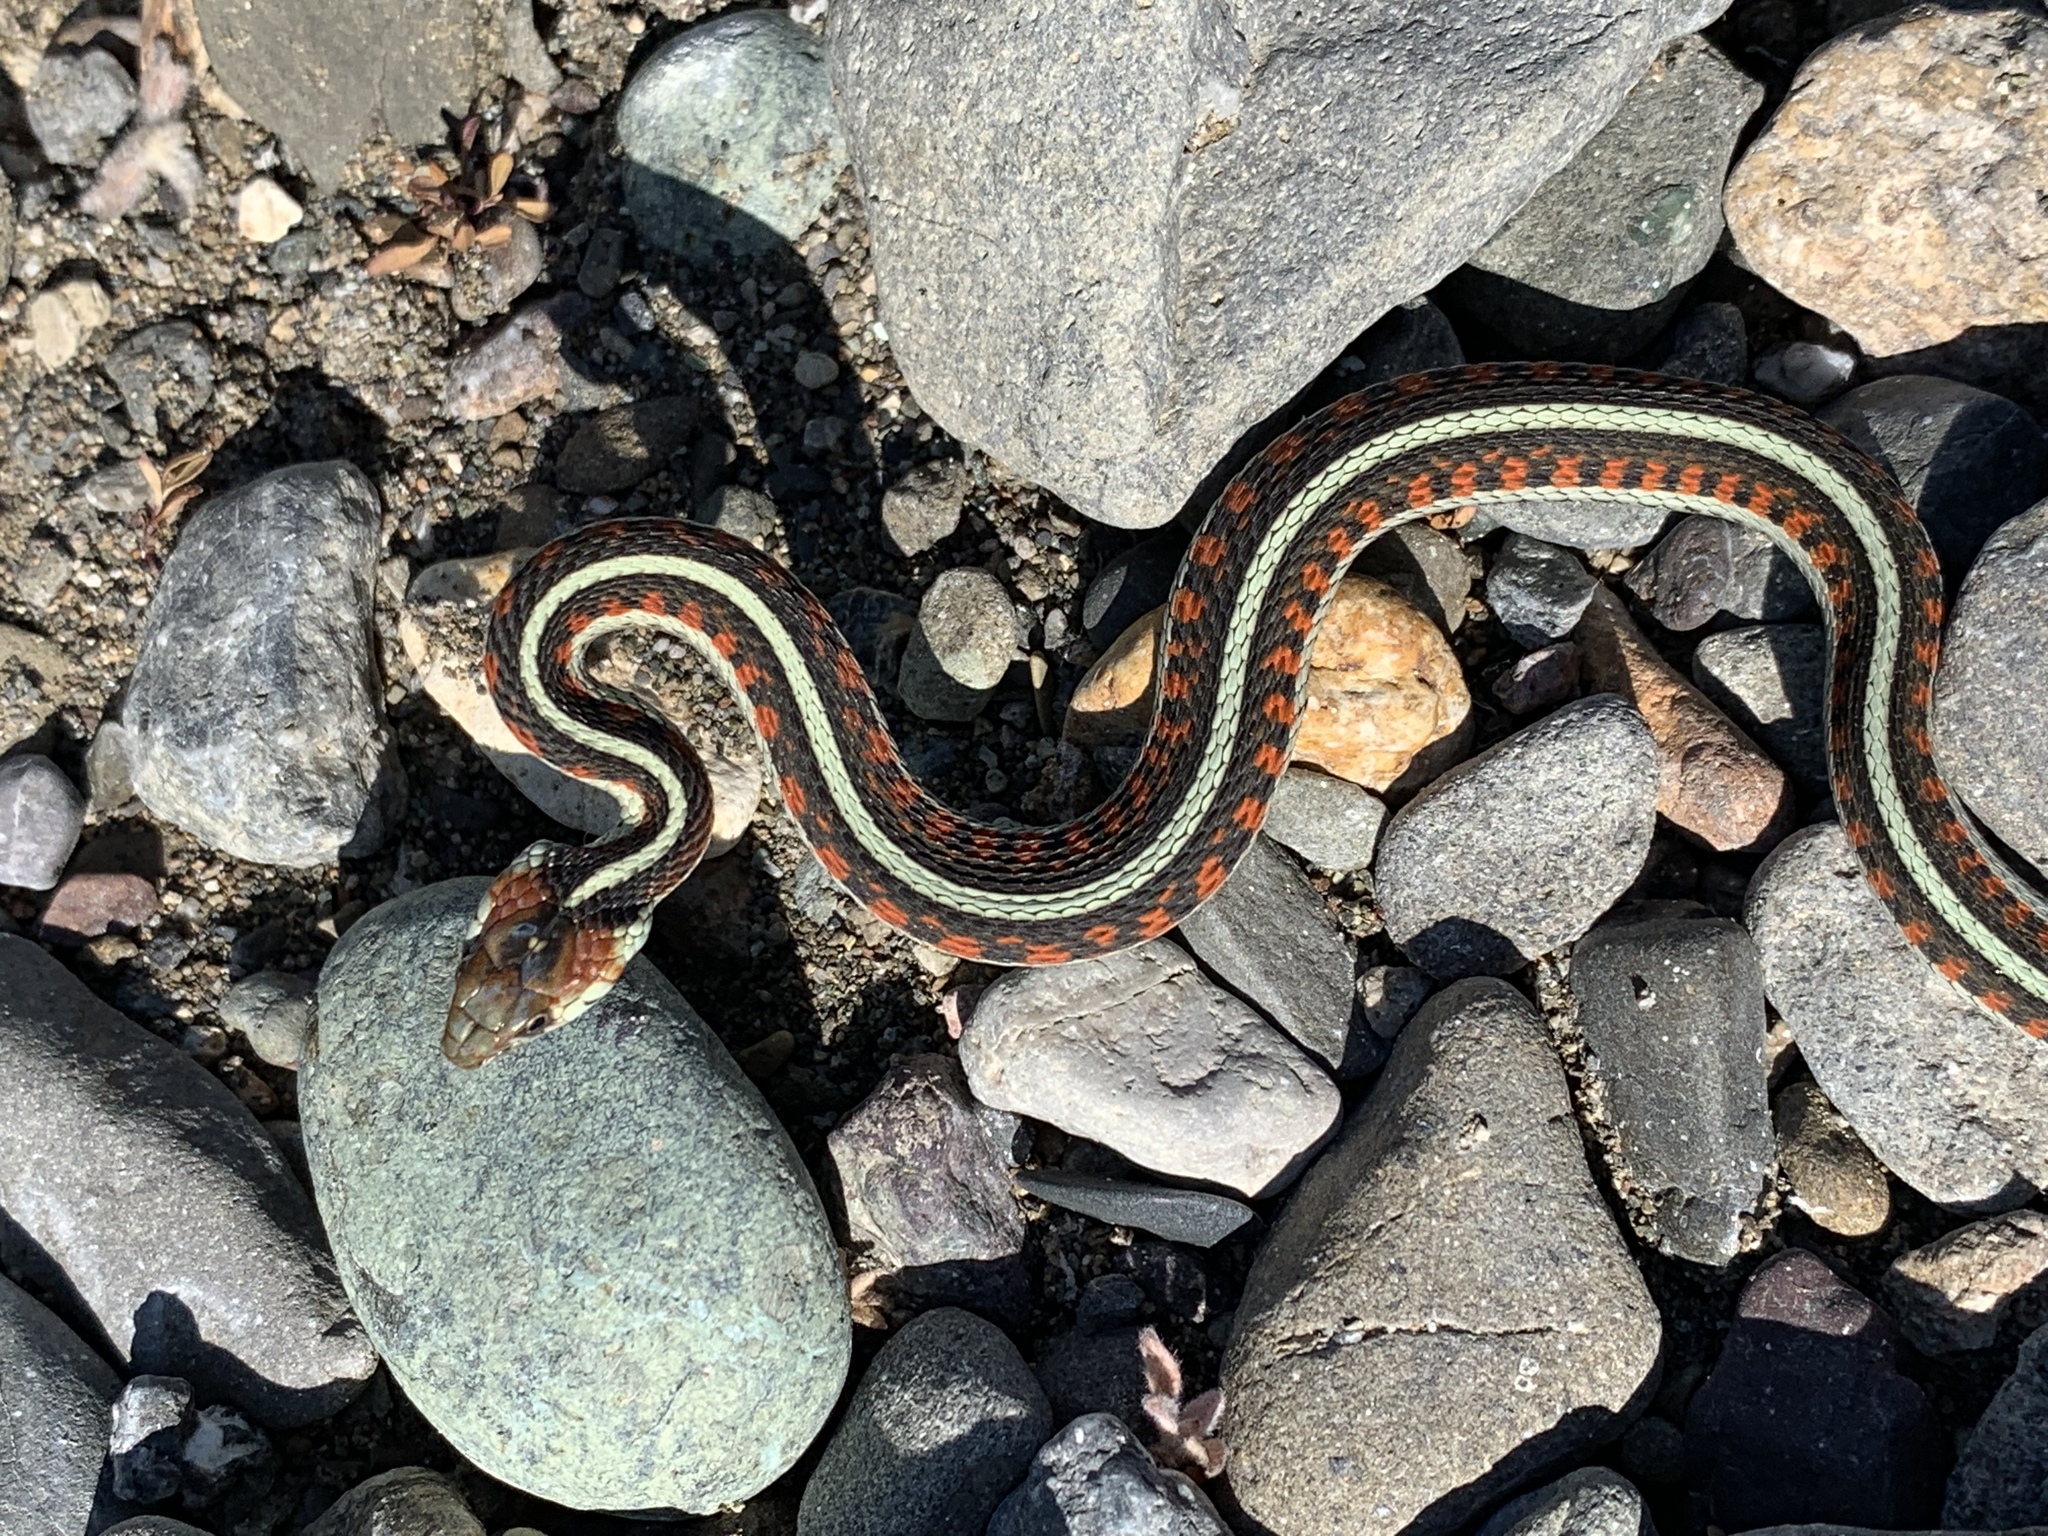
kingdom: Animalia
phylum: Chordata
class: Squamata
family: Colubridae
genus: Thamnophis
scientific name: Thamnophis sirtalis
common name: Common garter snake
